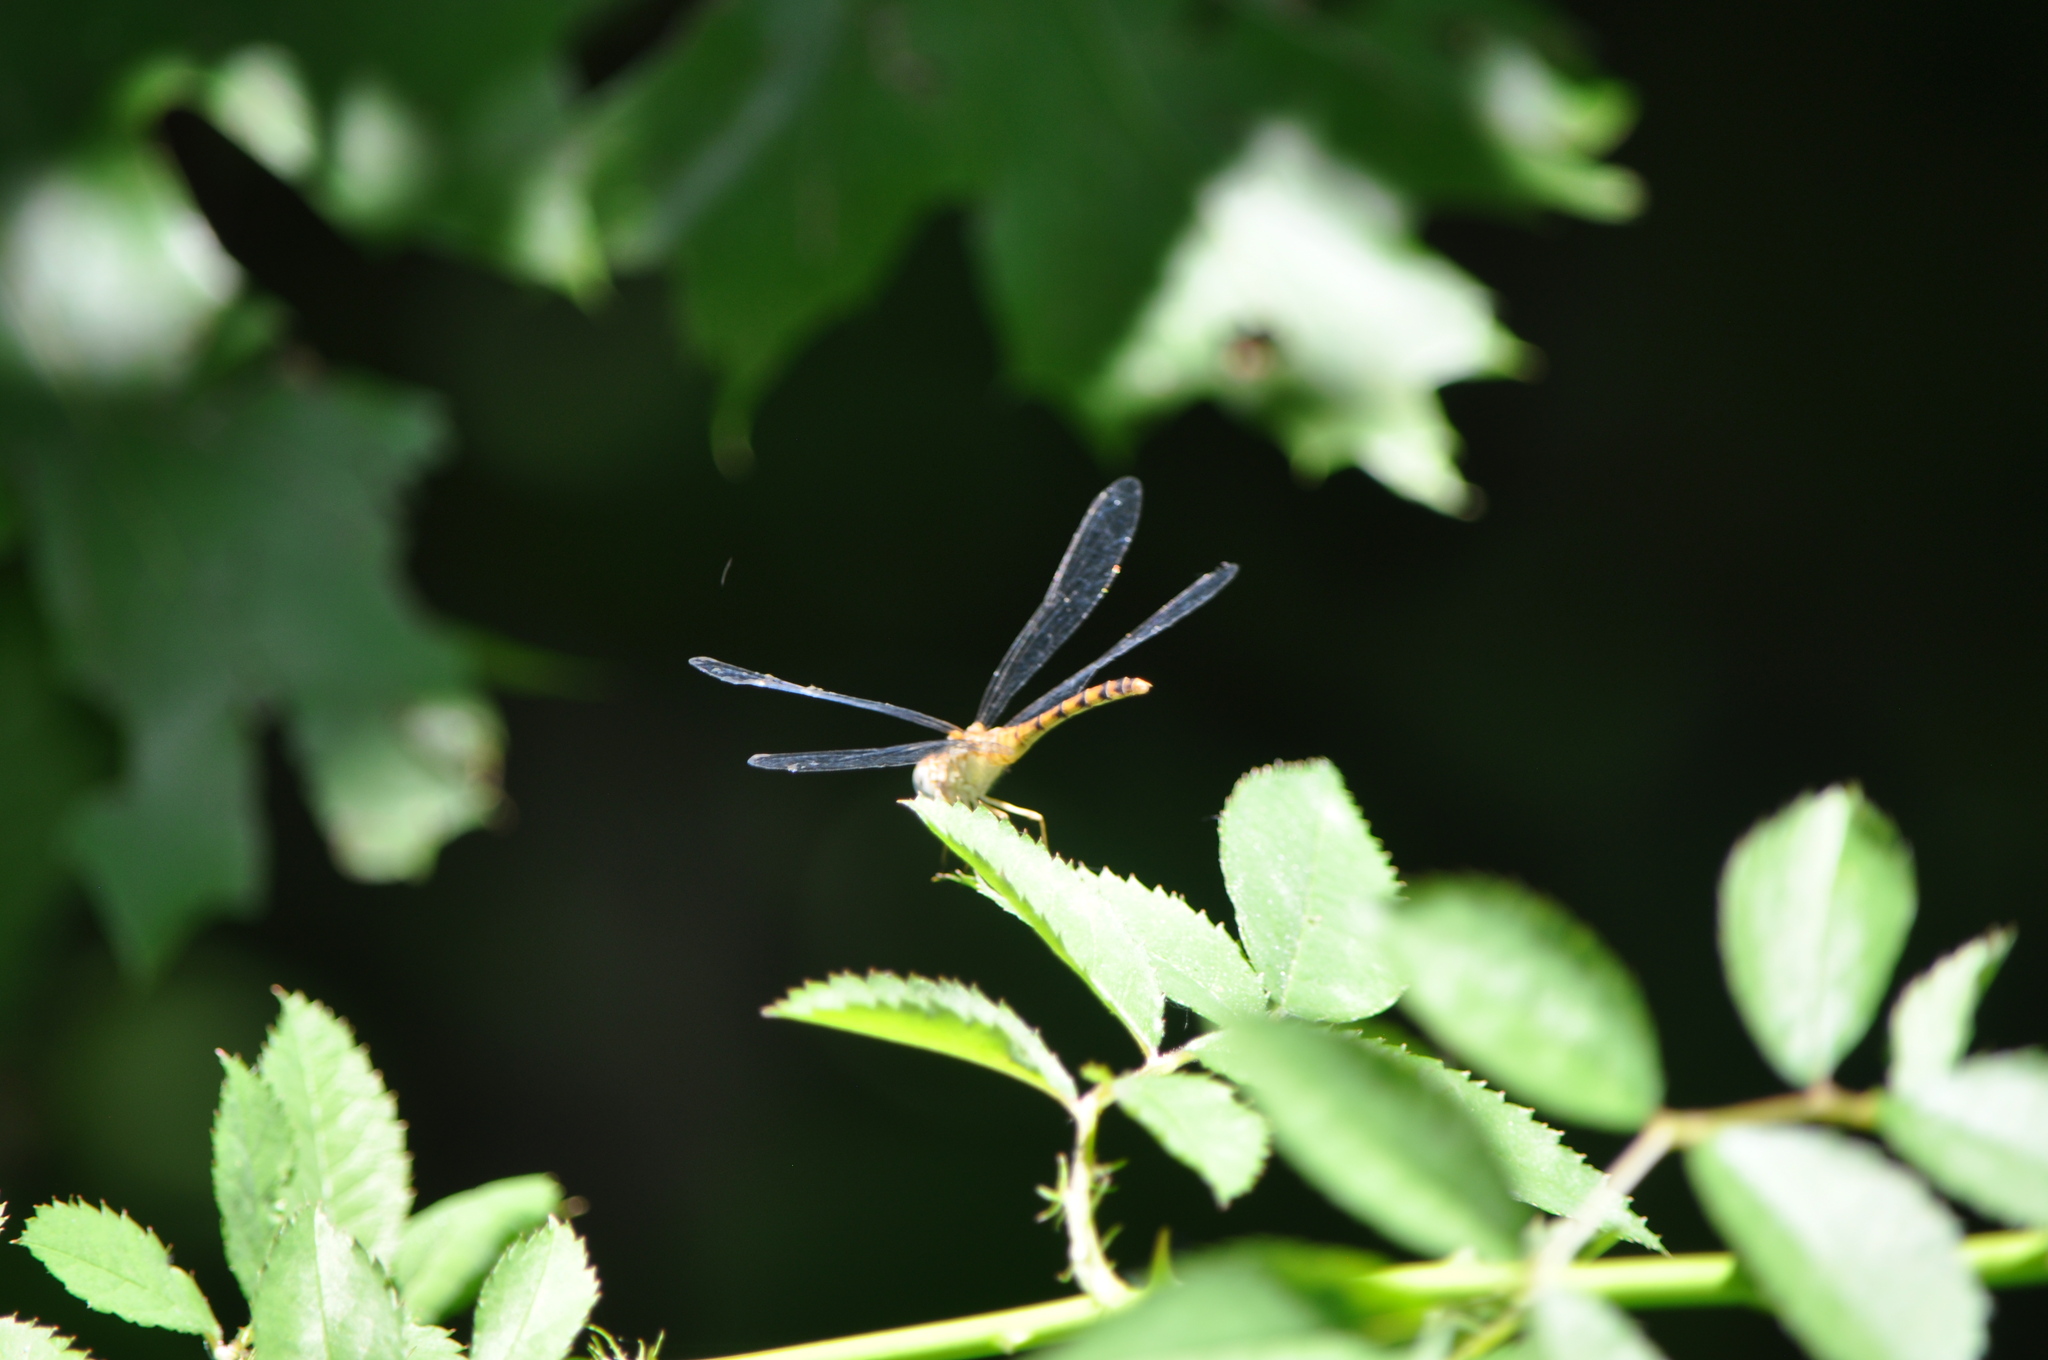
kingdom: Animalia
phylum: Arthropoda
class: Insecta
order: Odonata
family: Libellulidae
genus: Sympetrum
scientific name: Sympetrum ambiguum
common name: Blue-faced meadowhawk
